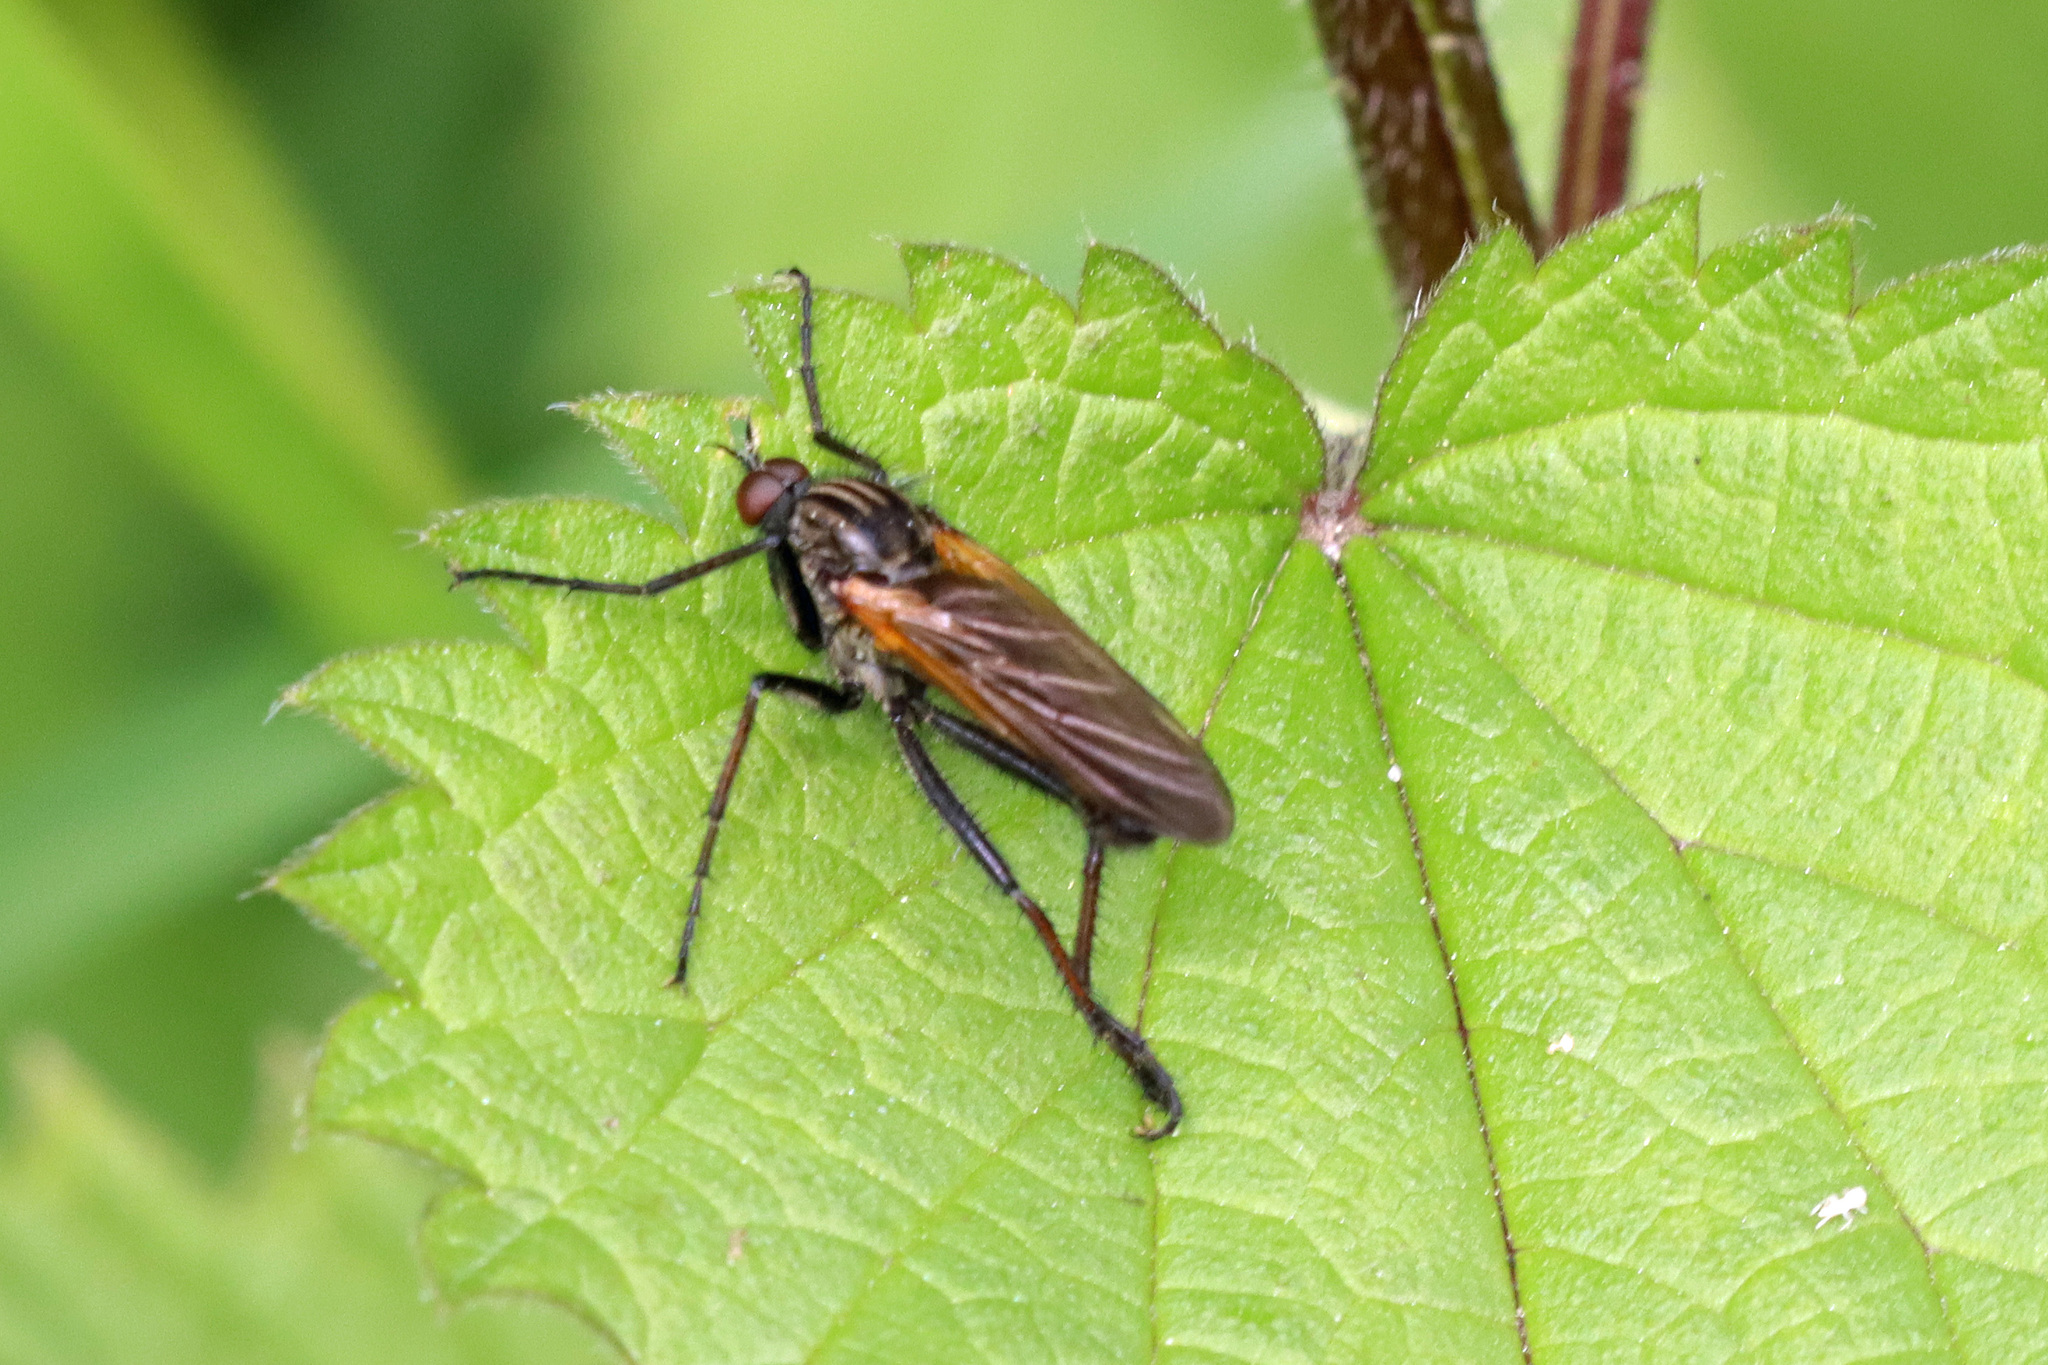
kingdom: Animalia
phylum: Arthropoda
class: Insecta
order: Diptera
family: Empididae
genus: Empis
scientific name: Empis tessellata
